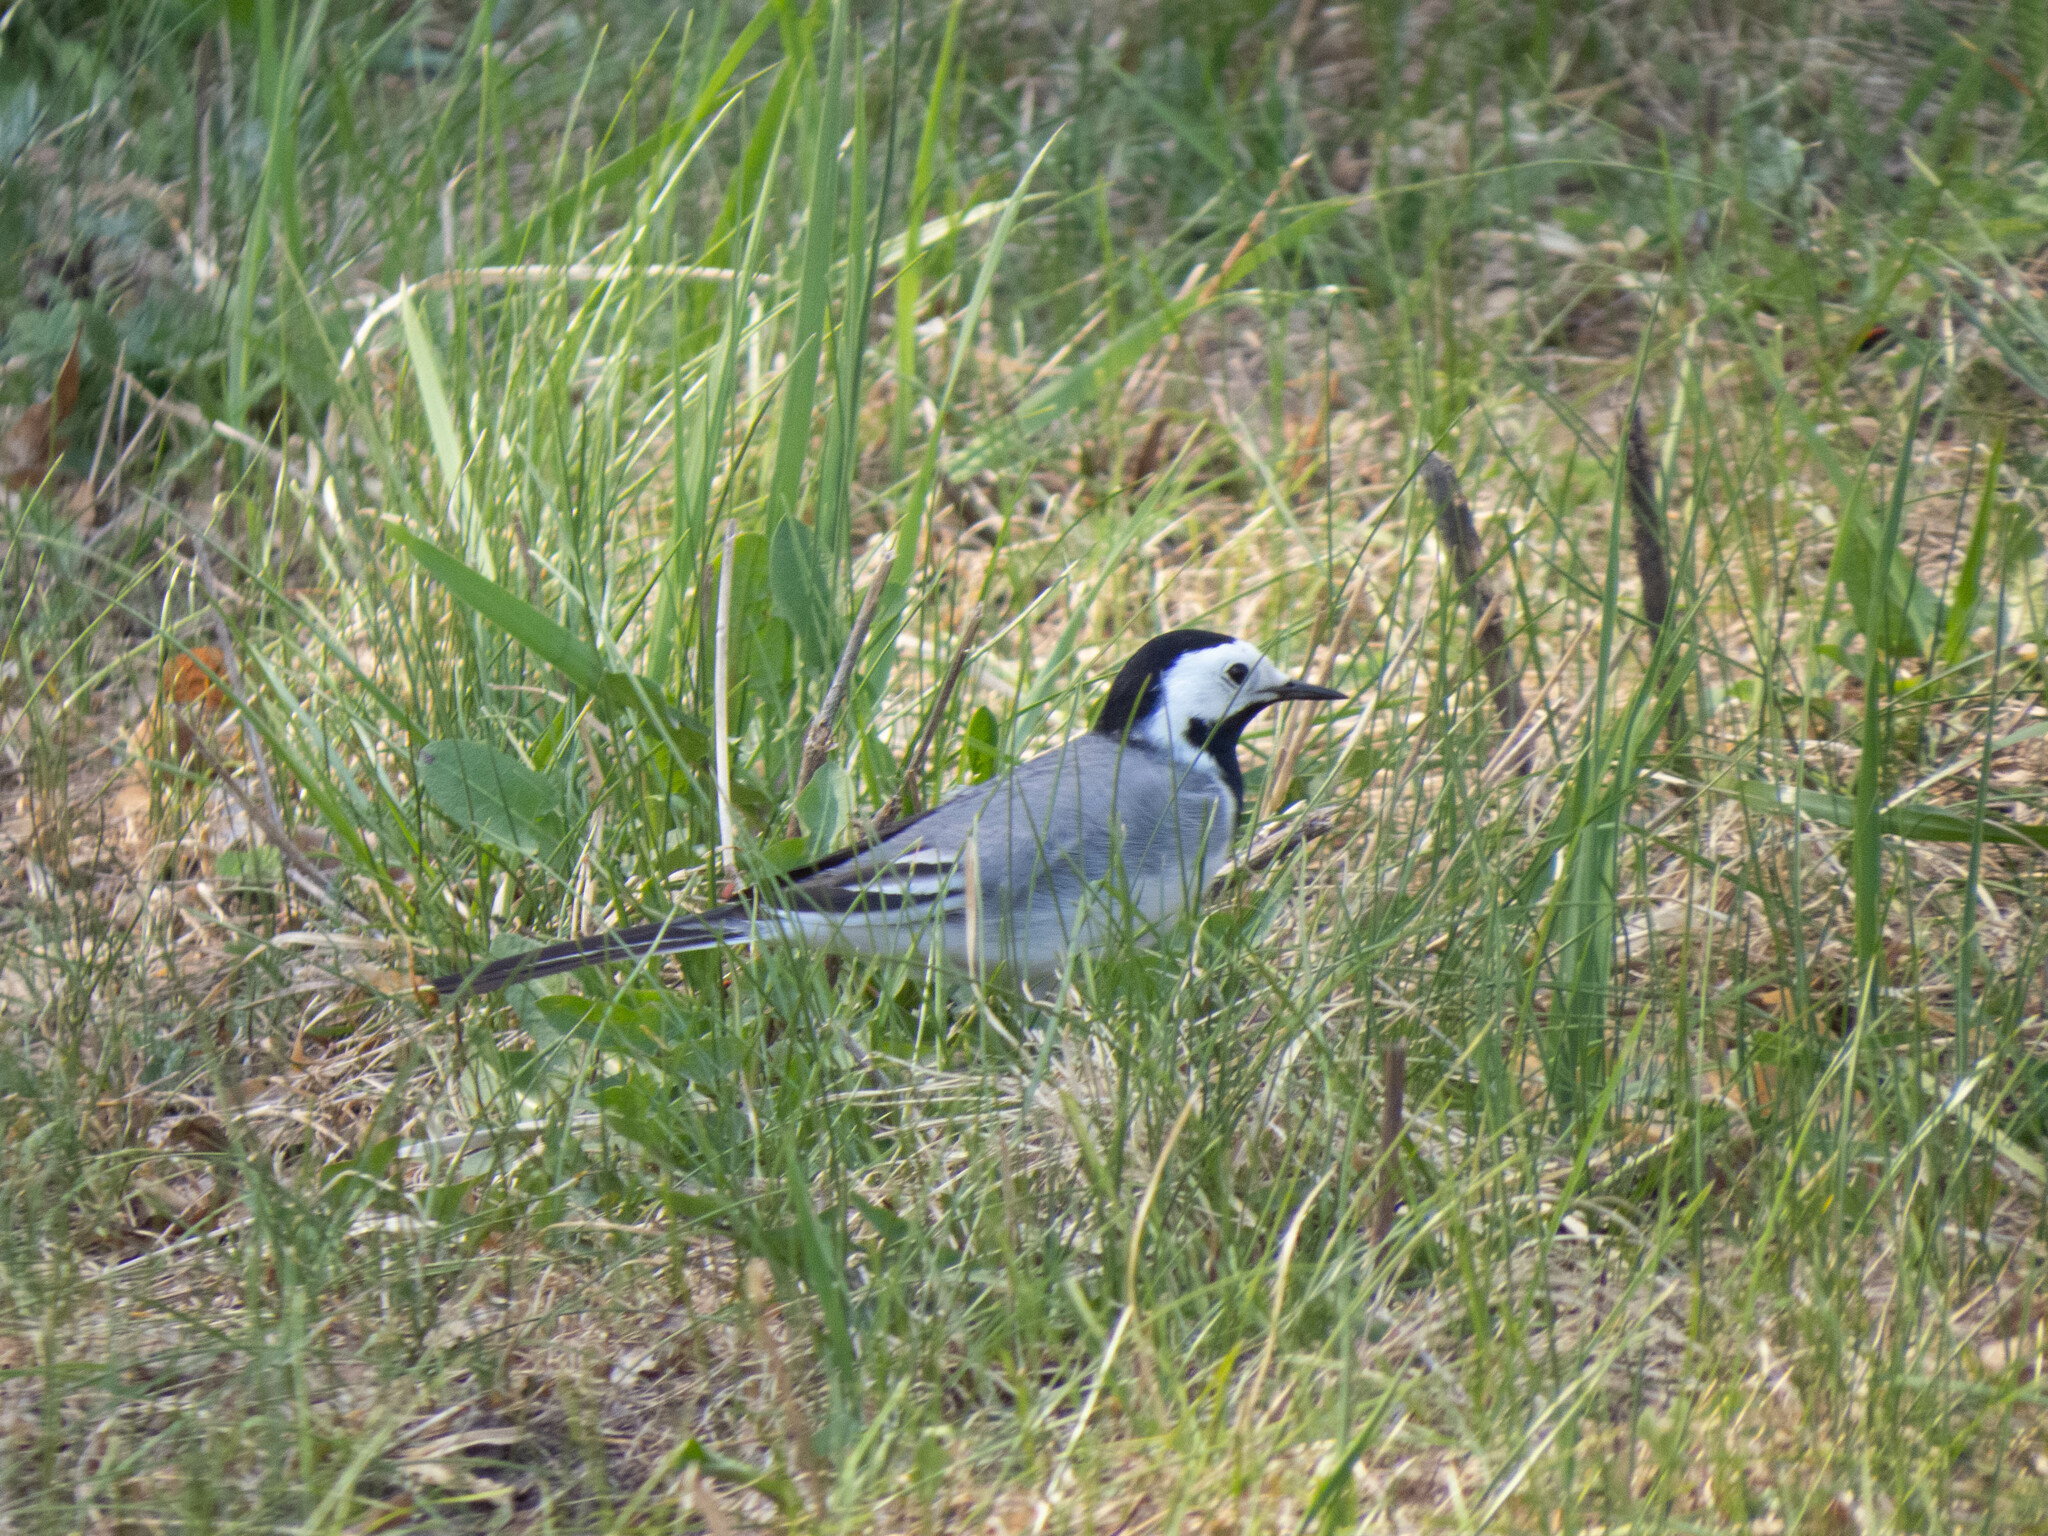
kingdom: Animalia
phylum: Chordata
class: Aves
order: Passeriformes
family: Motacillidae
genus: Motacilla
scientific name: Motacilla alba
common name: White wagtail
